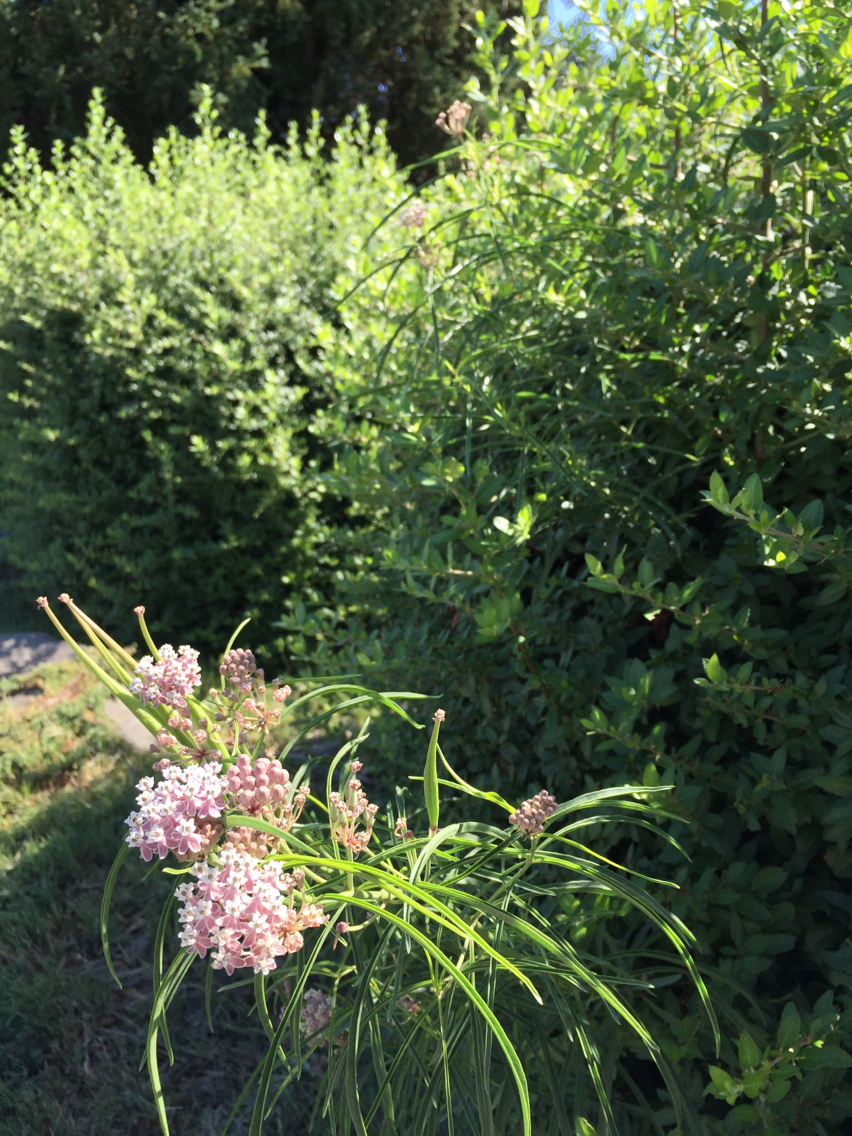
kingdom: Plantae
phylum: Tracheophyta
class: Magnoliopsida
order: Gentianales
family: Apocynaceae
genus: Asclepias
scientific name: Asclepias fascicularis
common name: Mexican milkweed
